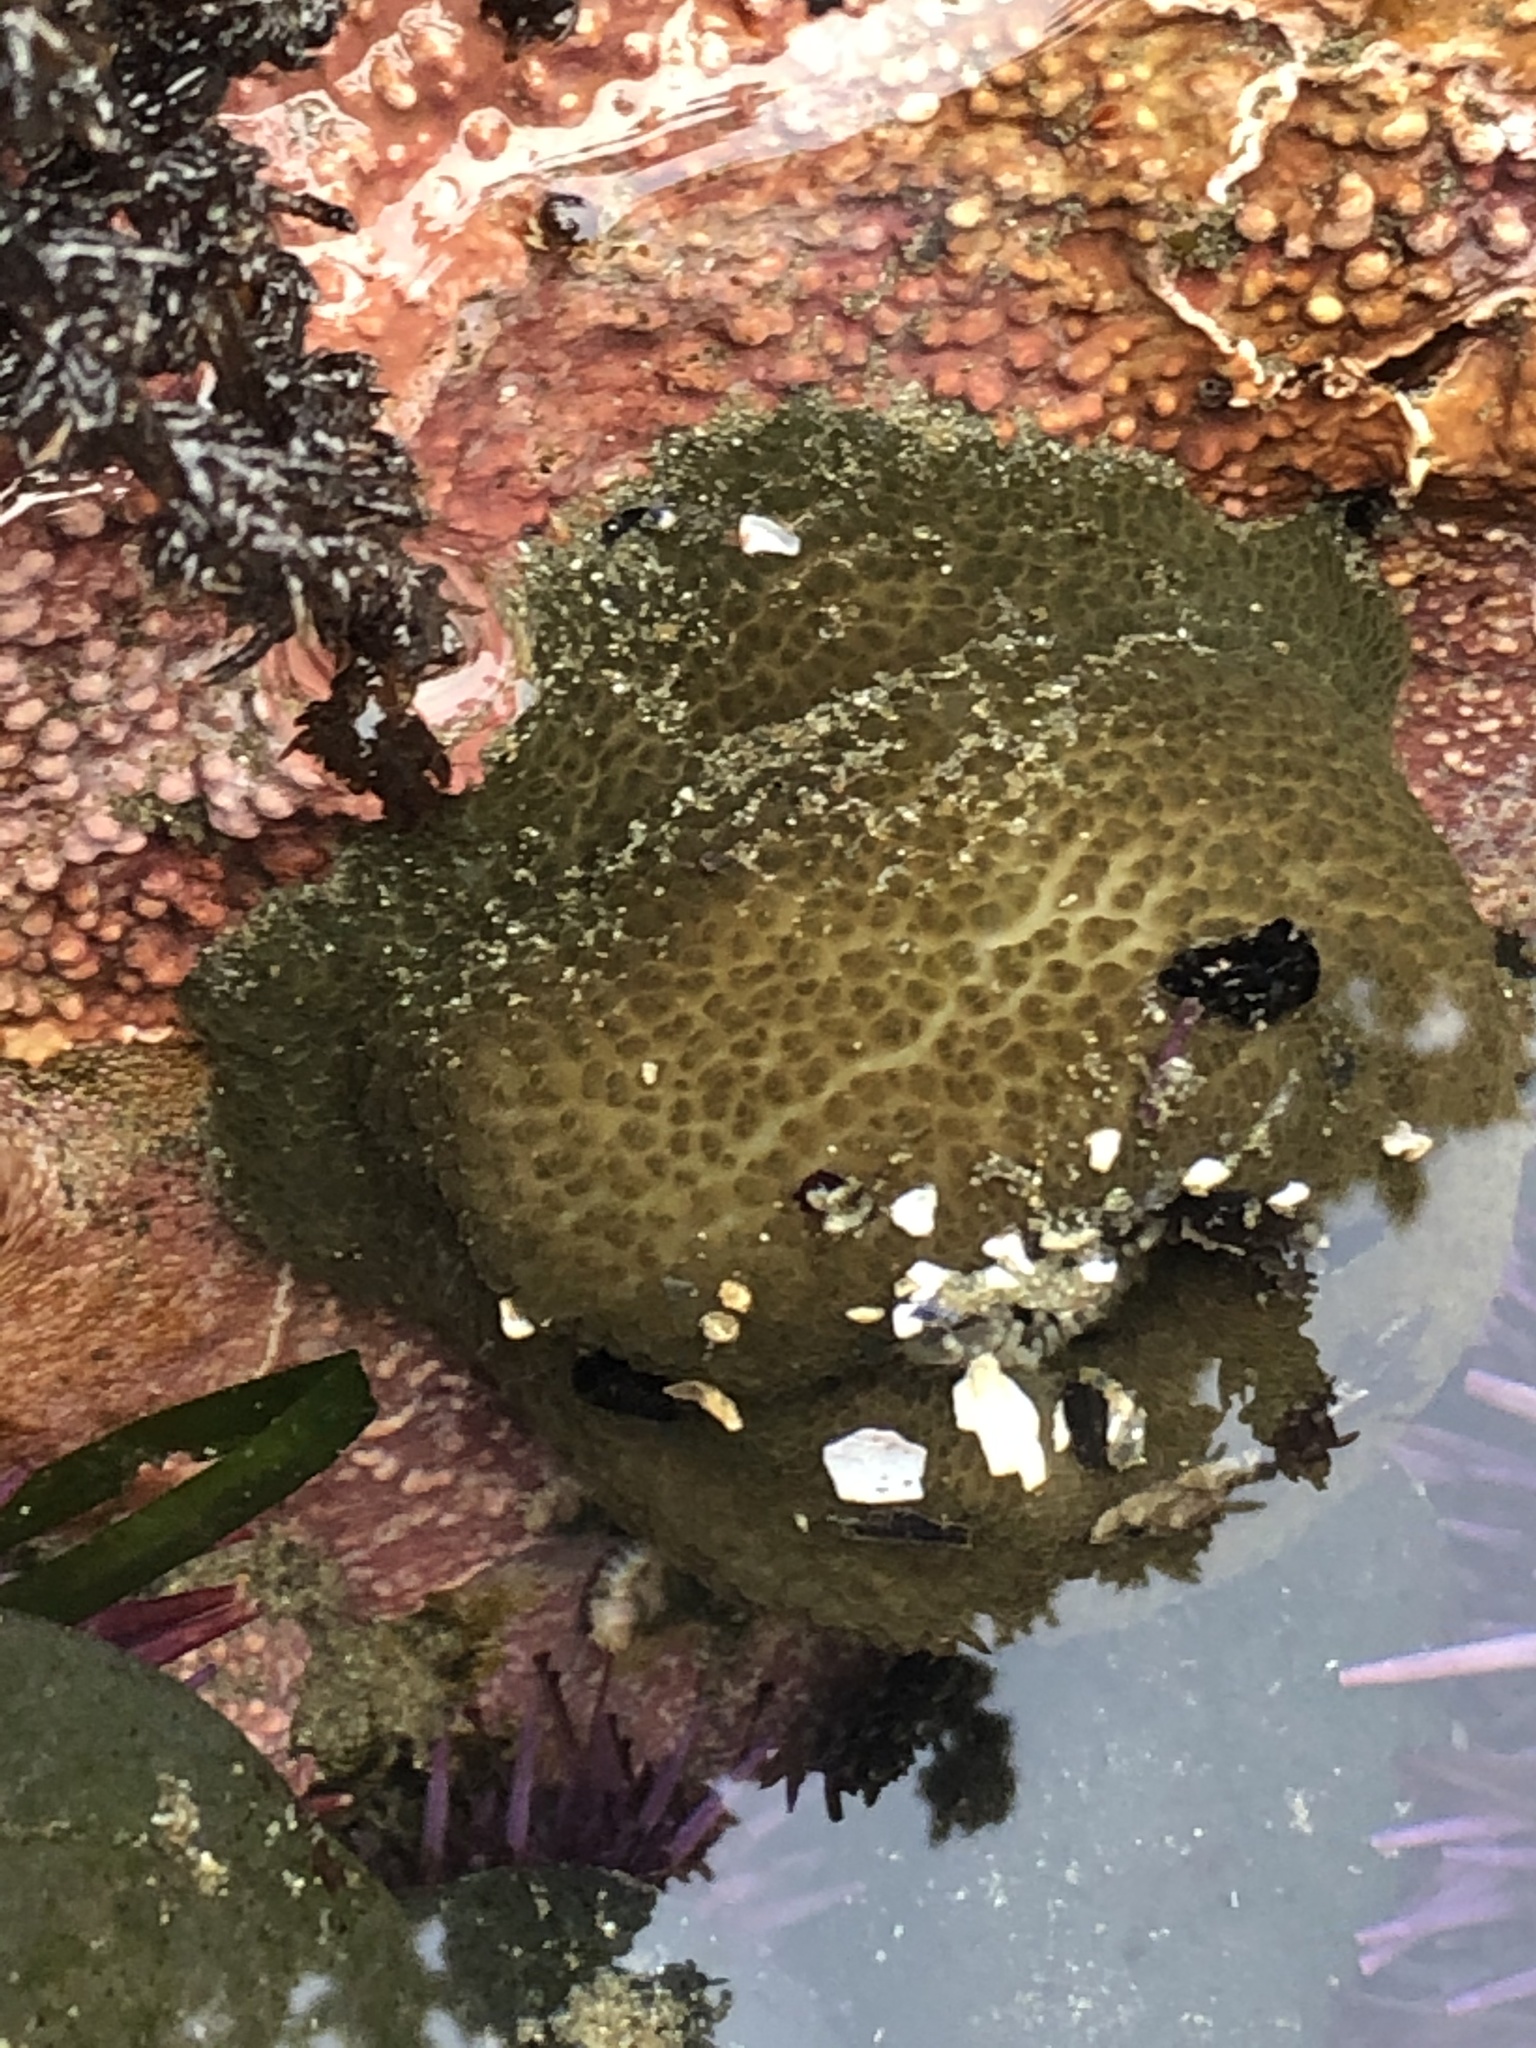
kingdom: Animalia
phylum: Cnidaria
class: Anthozoa
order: Actiniaria
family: Actiniidae
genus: Anthopleura
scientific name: Anthopleura xanthogrammica
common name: Giant green anemone
